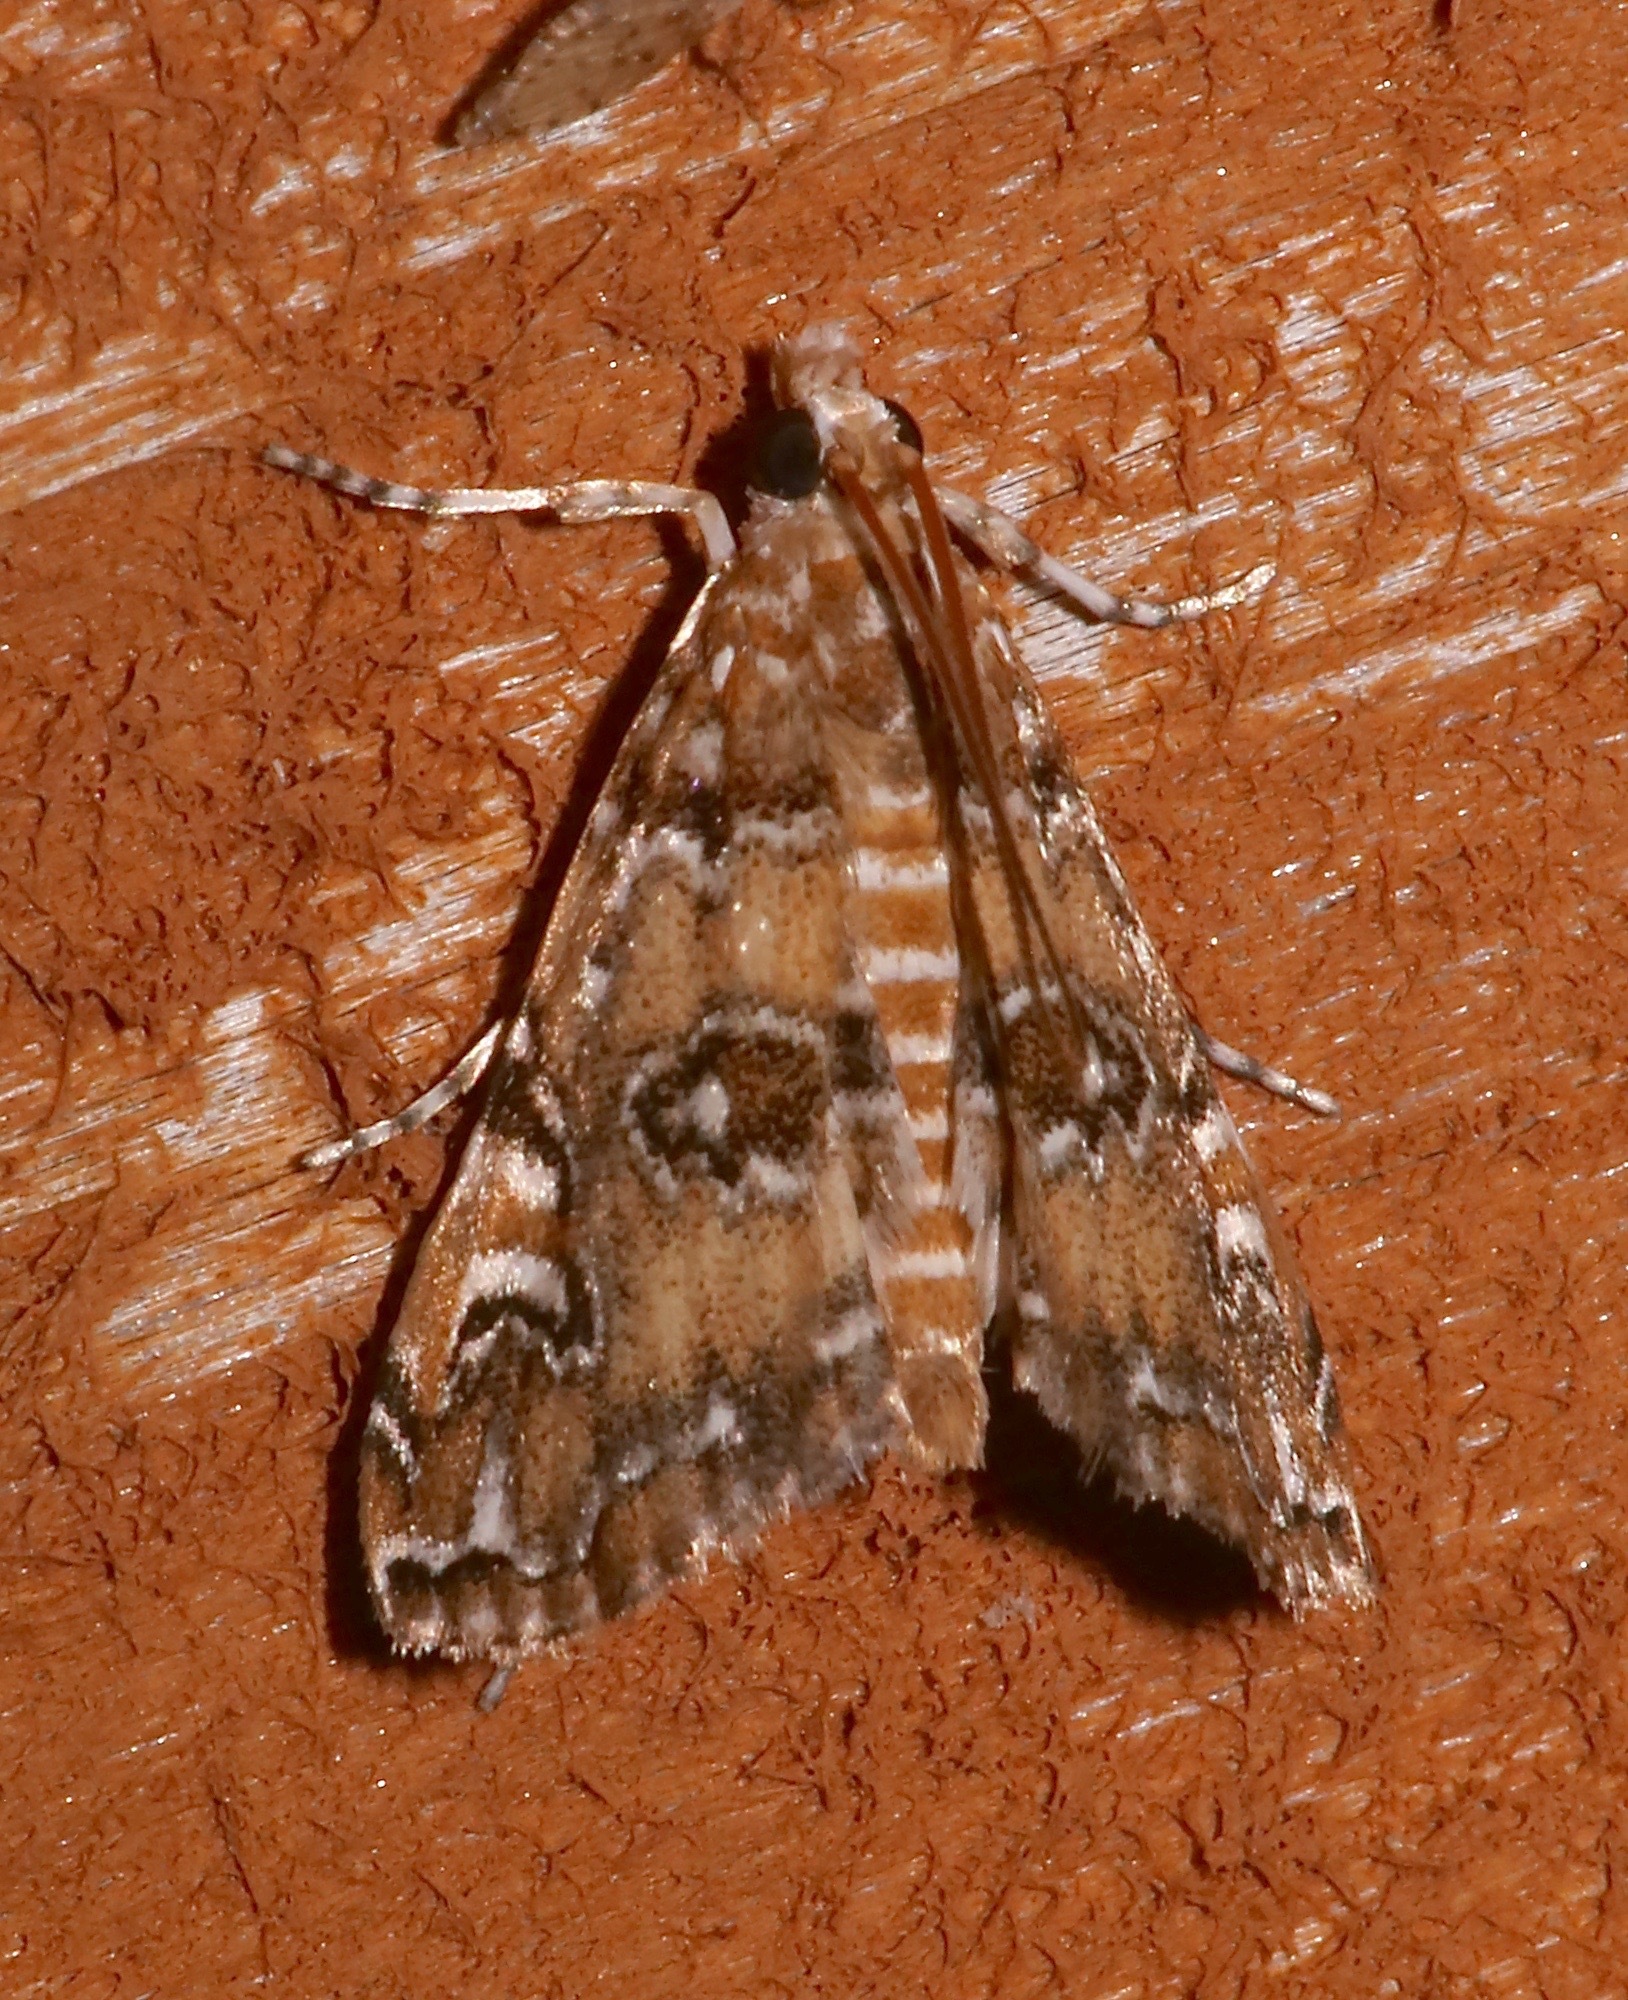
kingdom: Animalia
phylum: Arthropoda
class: Insecta
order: Lepidoptera
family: Crambidae
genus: Elophila
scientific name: Elophila gyralis
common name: Waterlily borer moth
